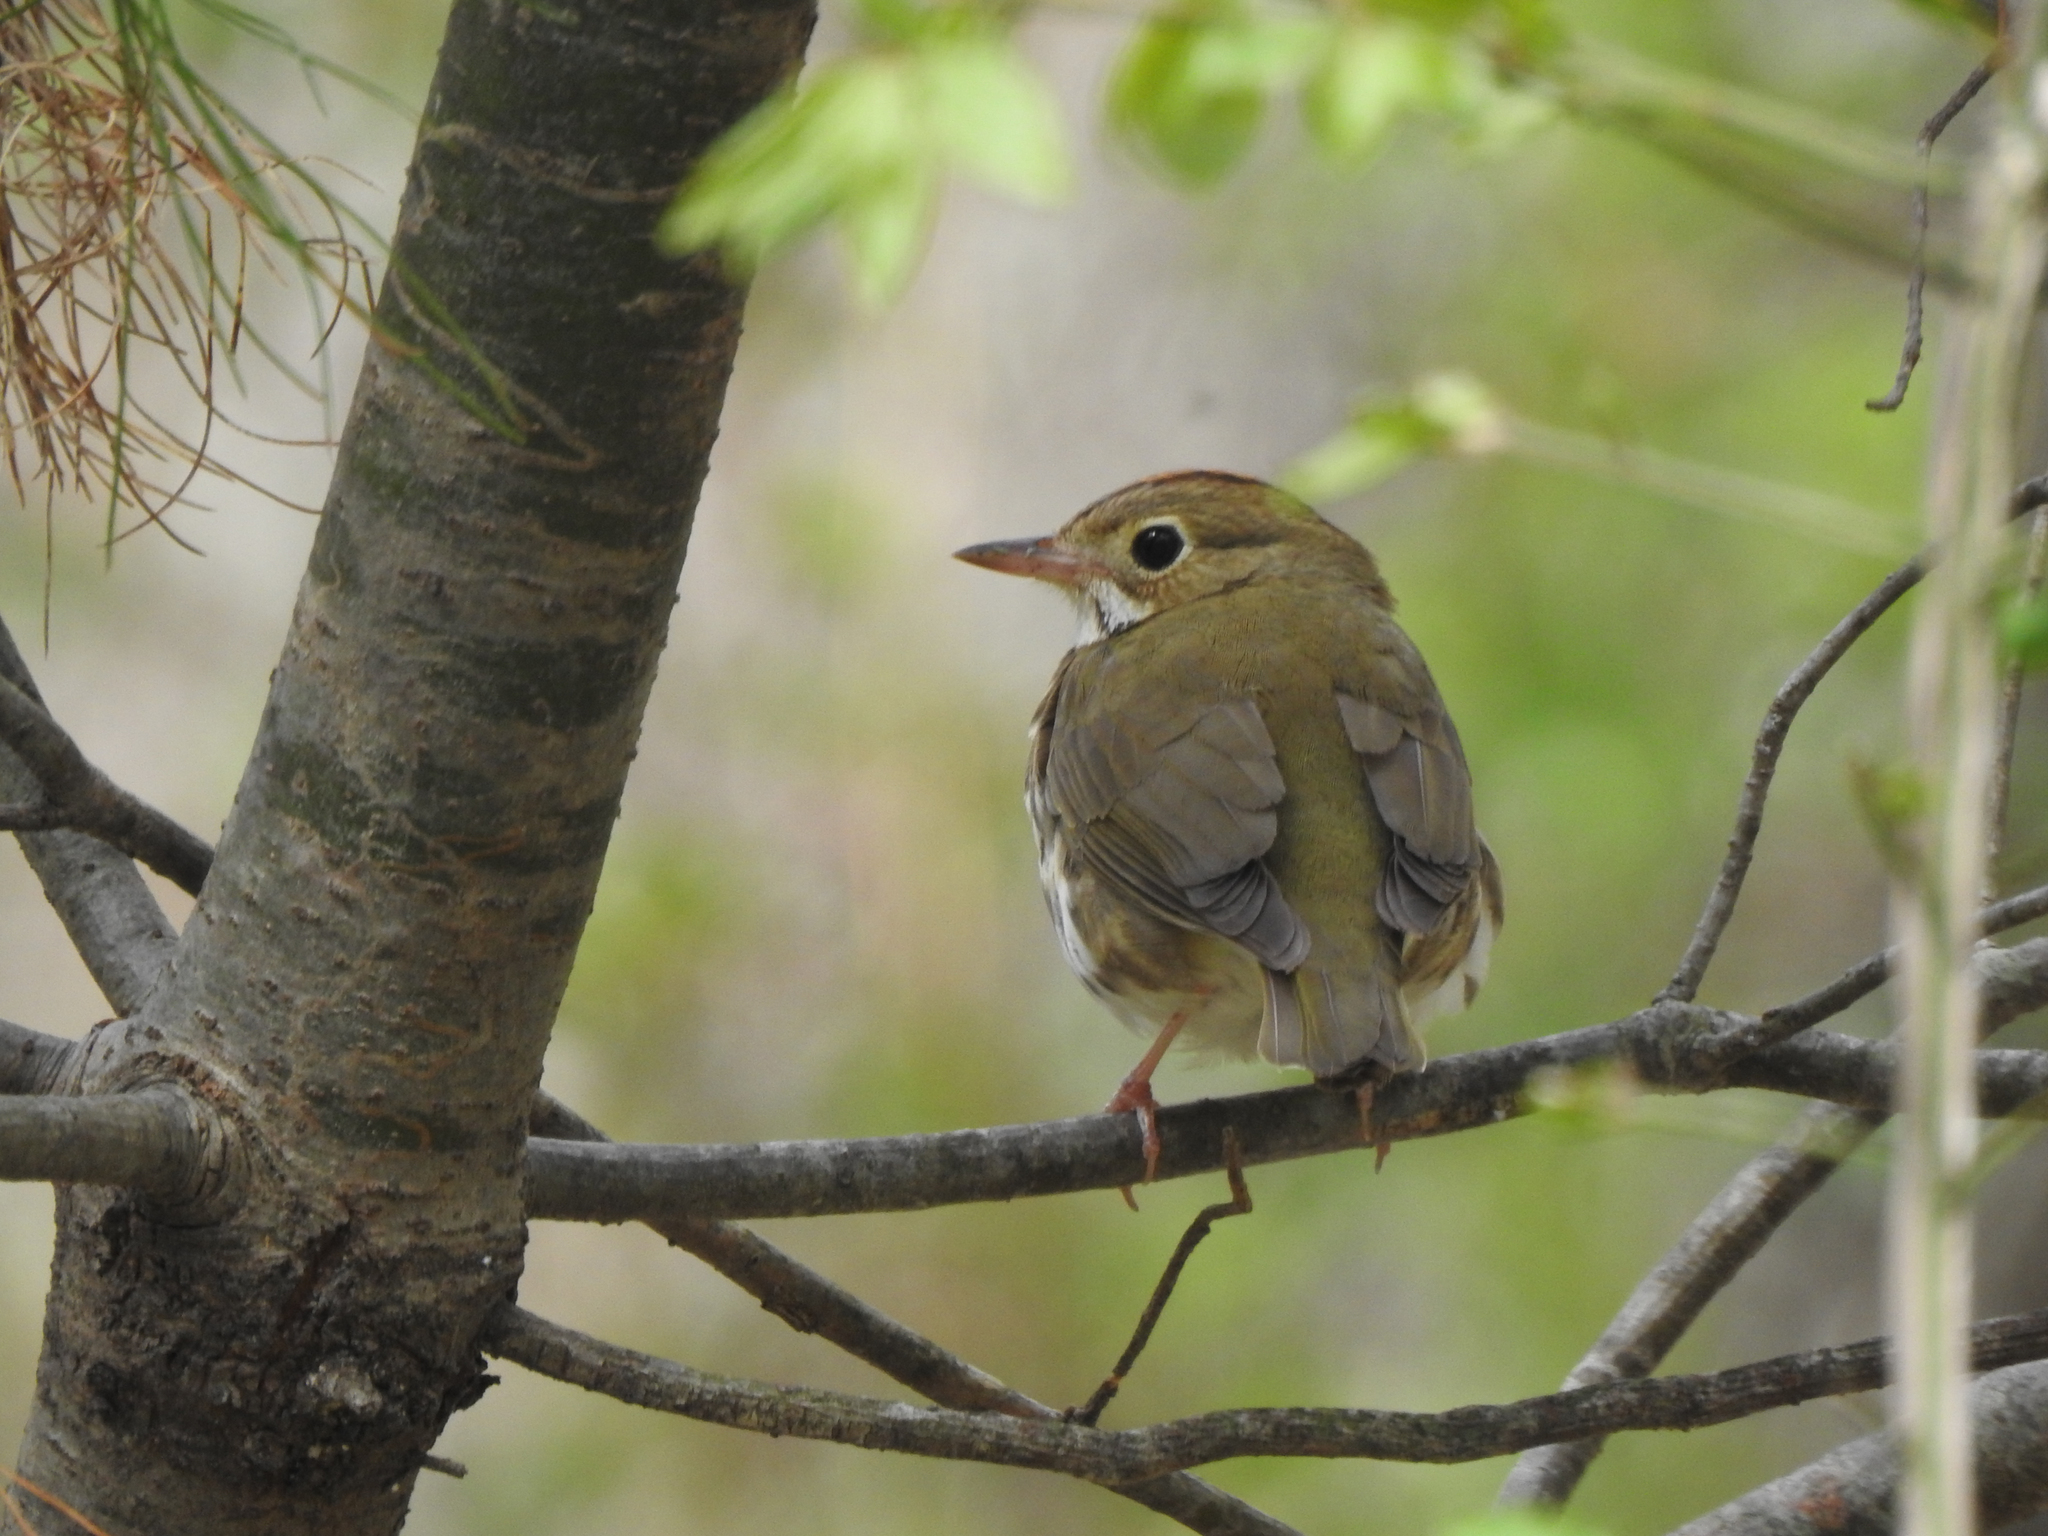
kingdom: Animalia
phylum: Chordata
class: Aves
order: Passeriformes
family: Parulidae
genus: Seiurus
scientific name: Seiurus aurocapilla
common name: Ovenbird
